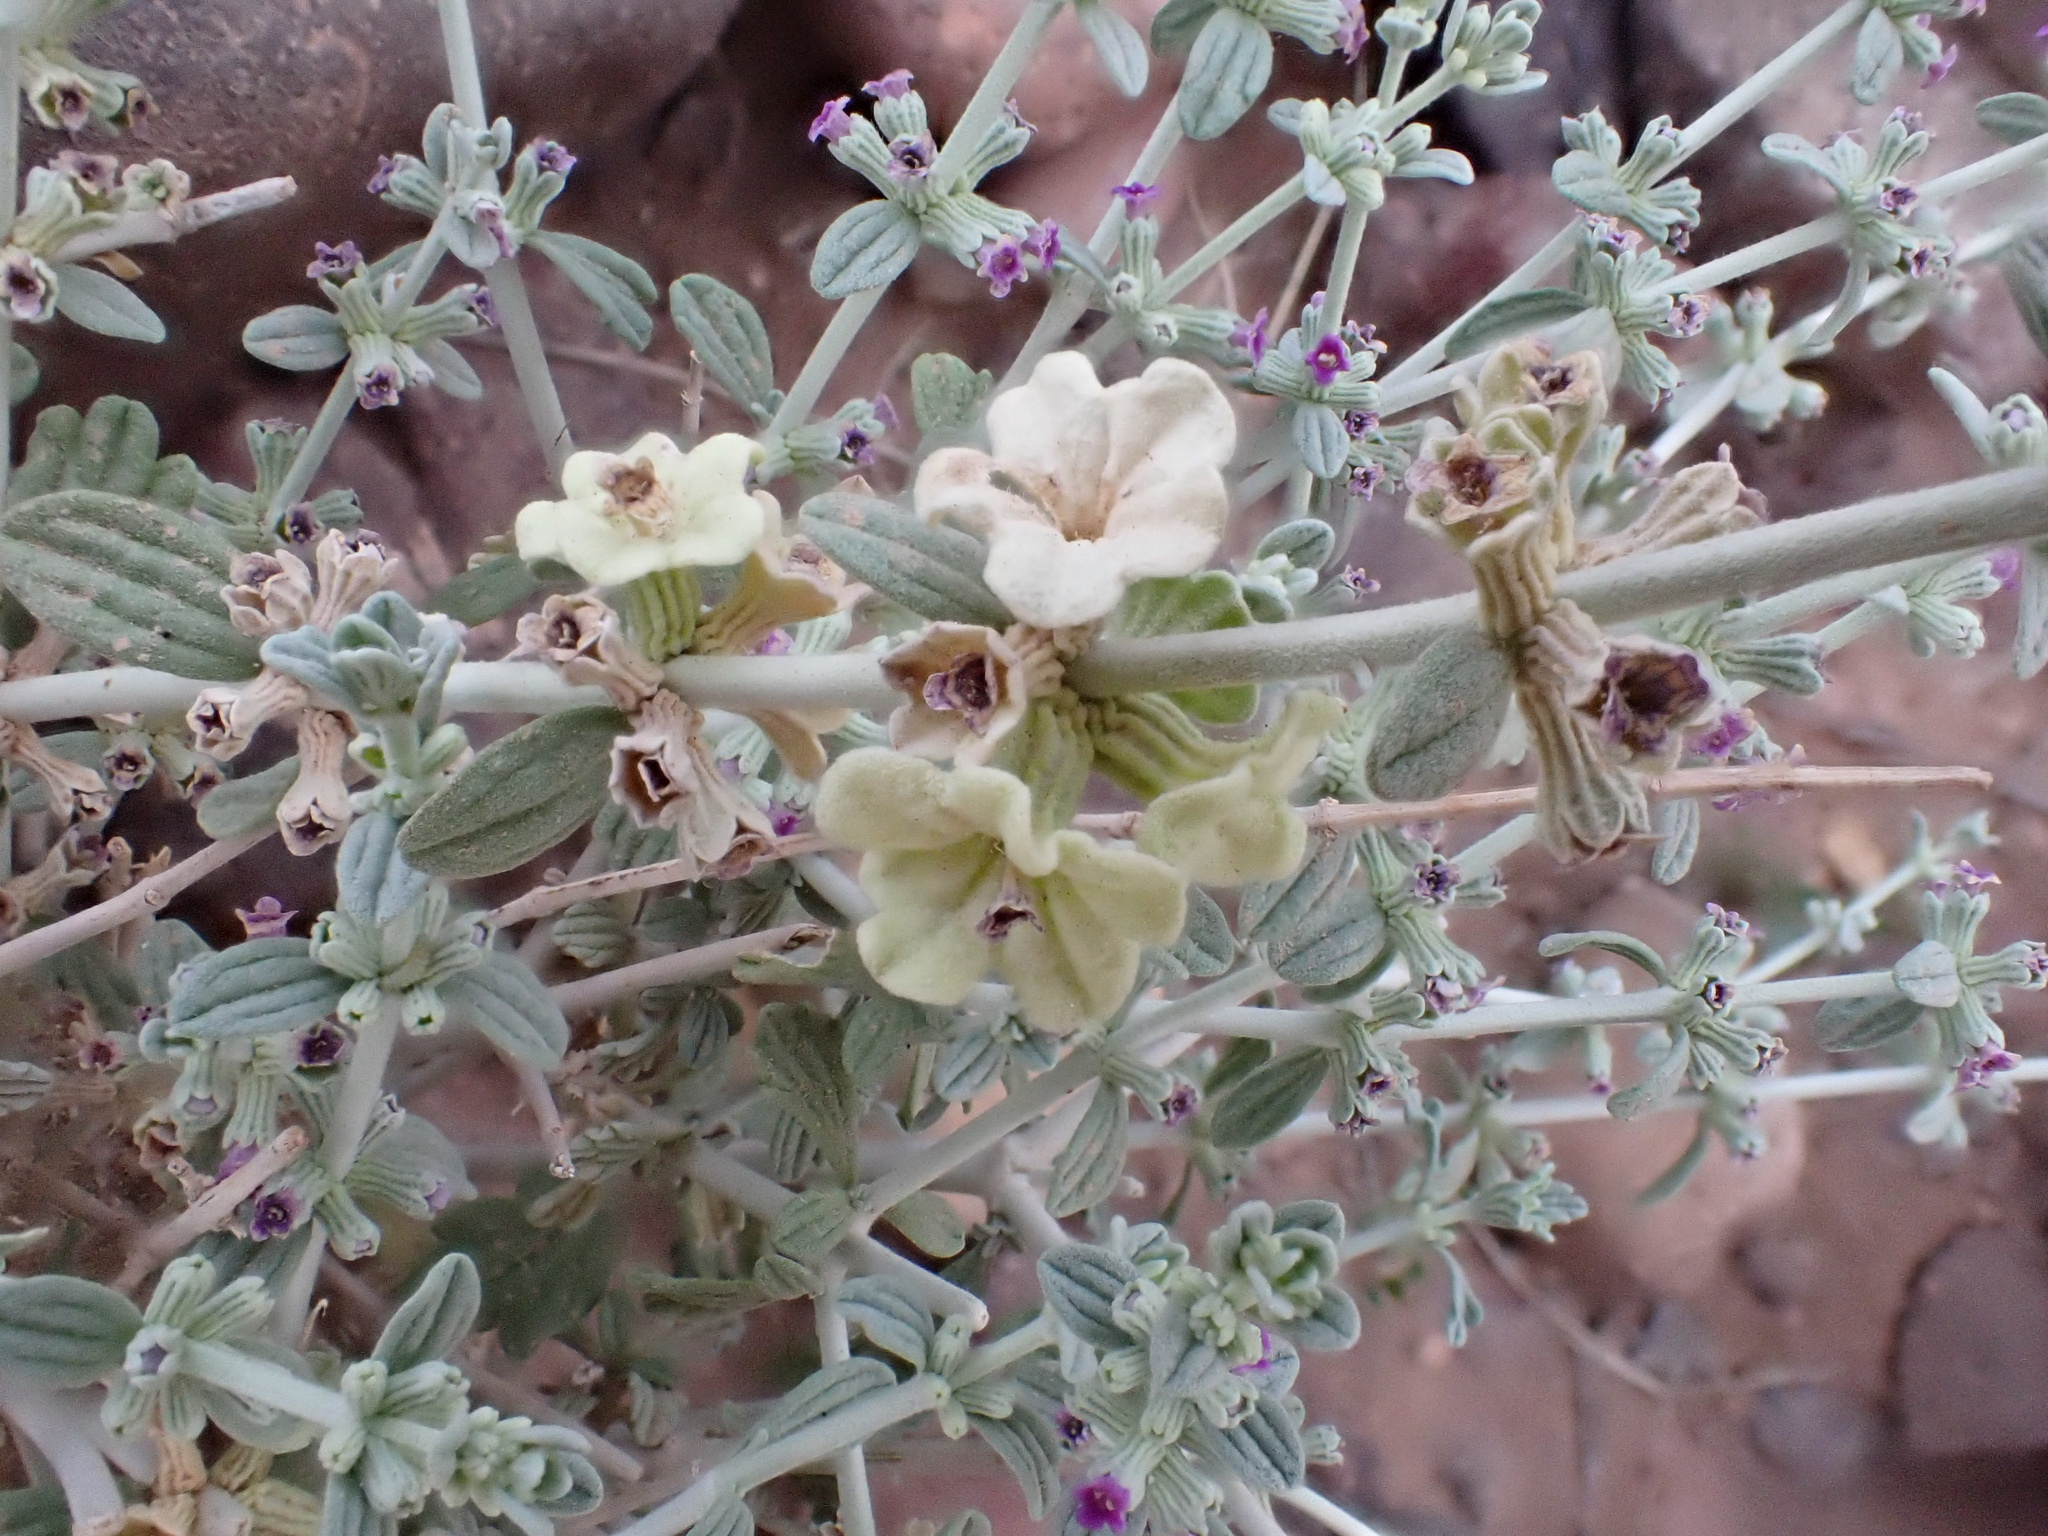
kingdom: Plantae
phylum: Tracheophyta
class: Magnoliopsida
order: Lamiales
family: Lamiaceae
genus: Marrubium
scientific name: Marrubium deserti
